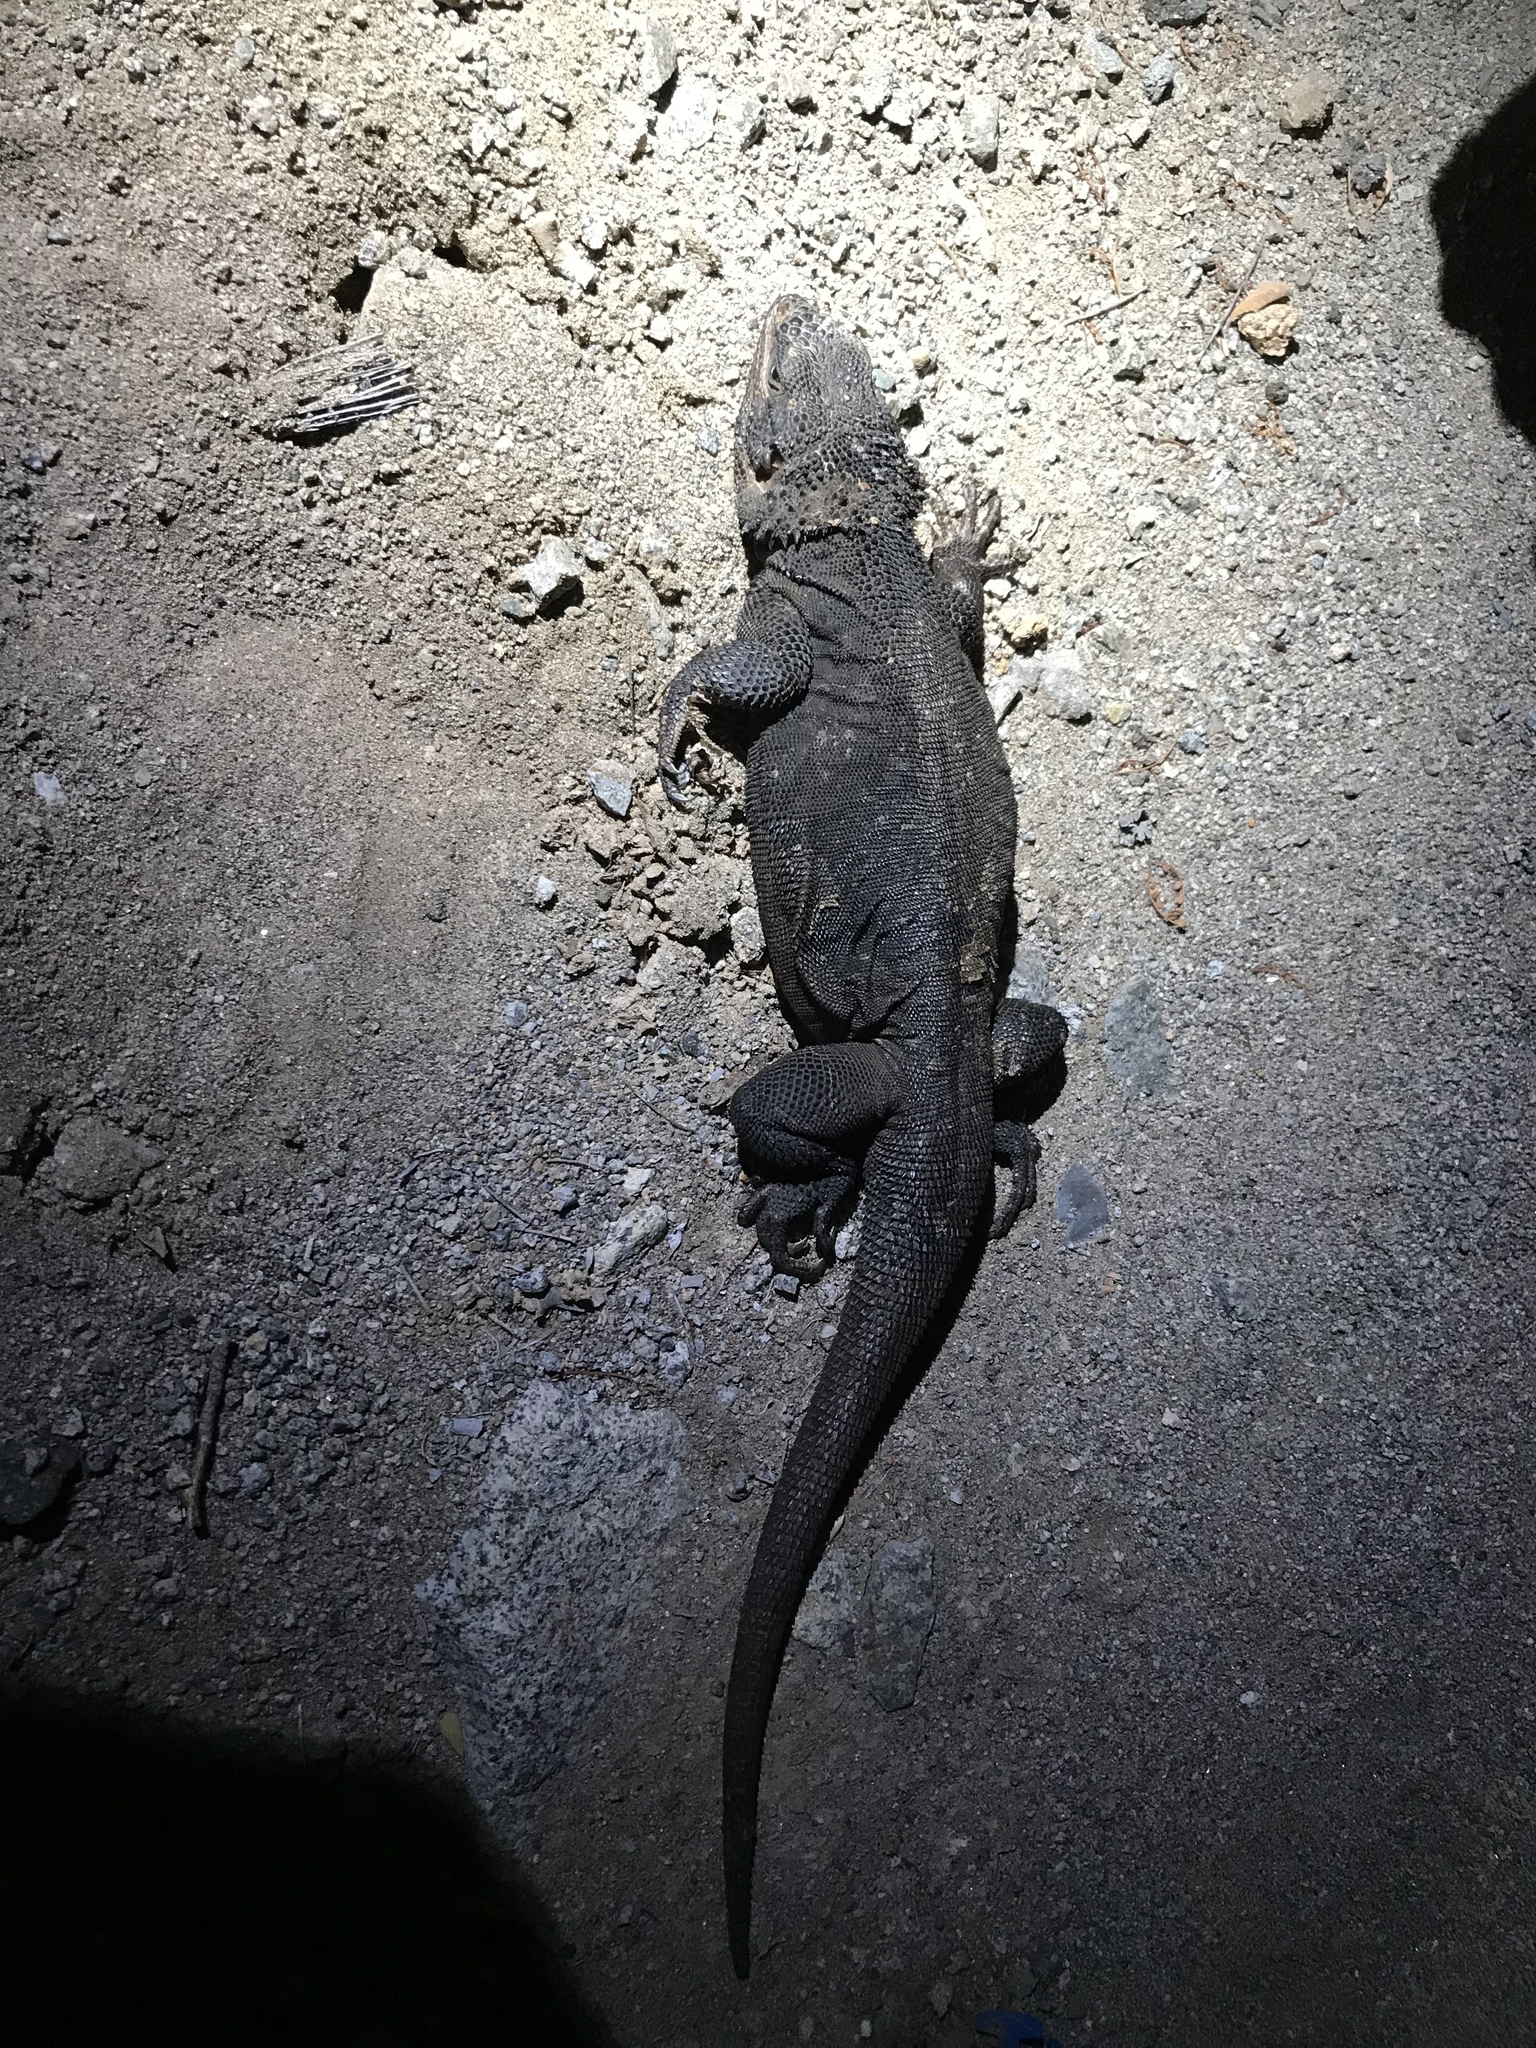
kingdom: Animalia
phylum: Chordata
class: Squamata
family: Iguanidae
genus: Sauromalus
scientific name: Sauromalus klauberi
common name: Catalina chuckwalla
